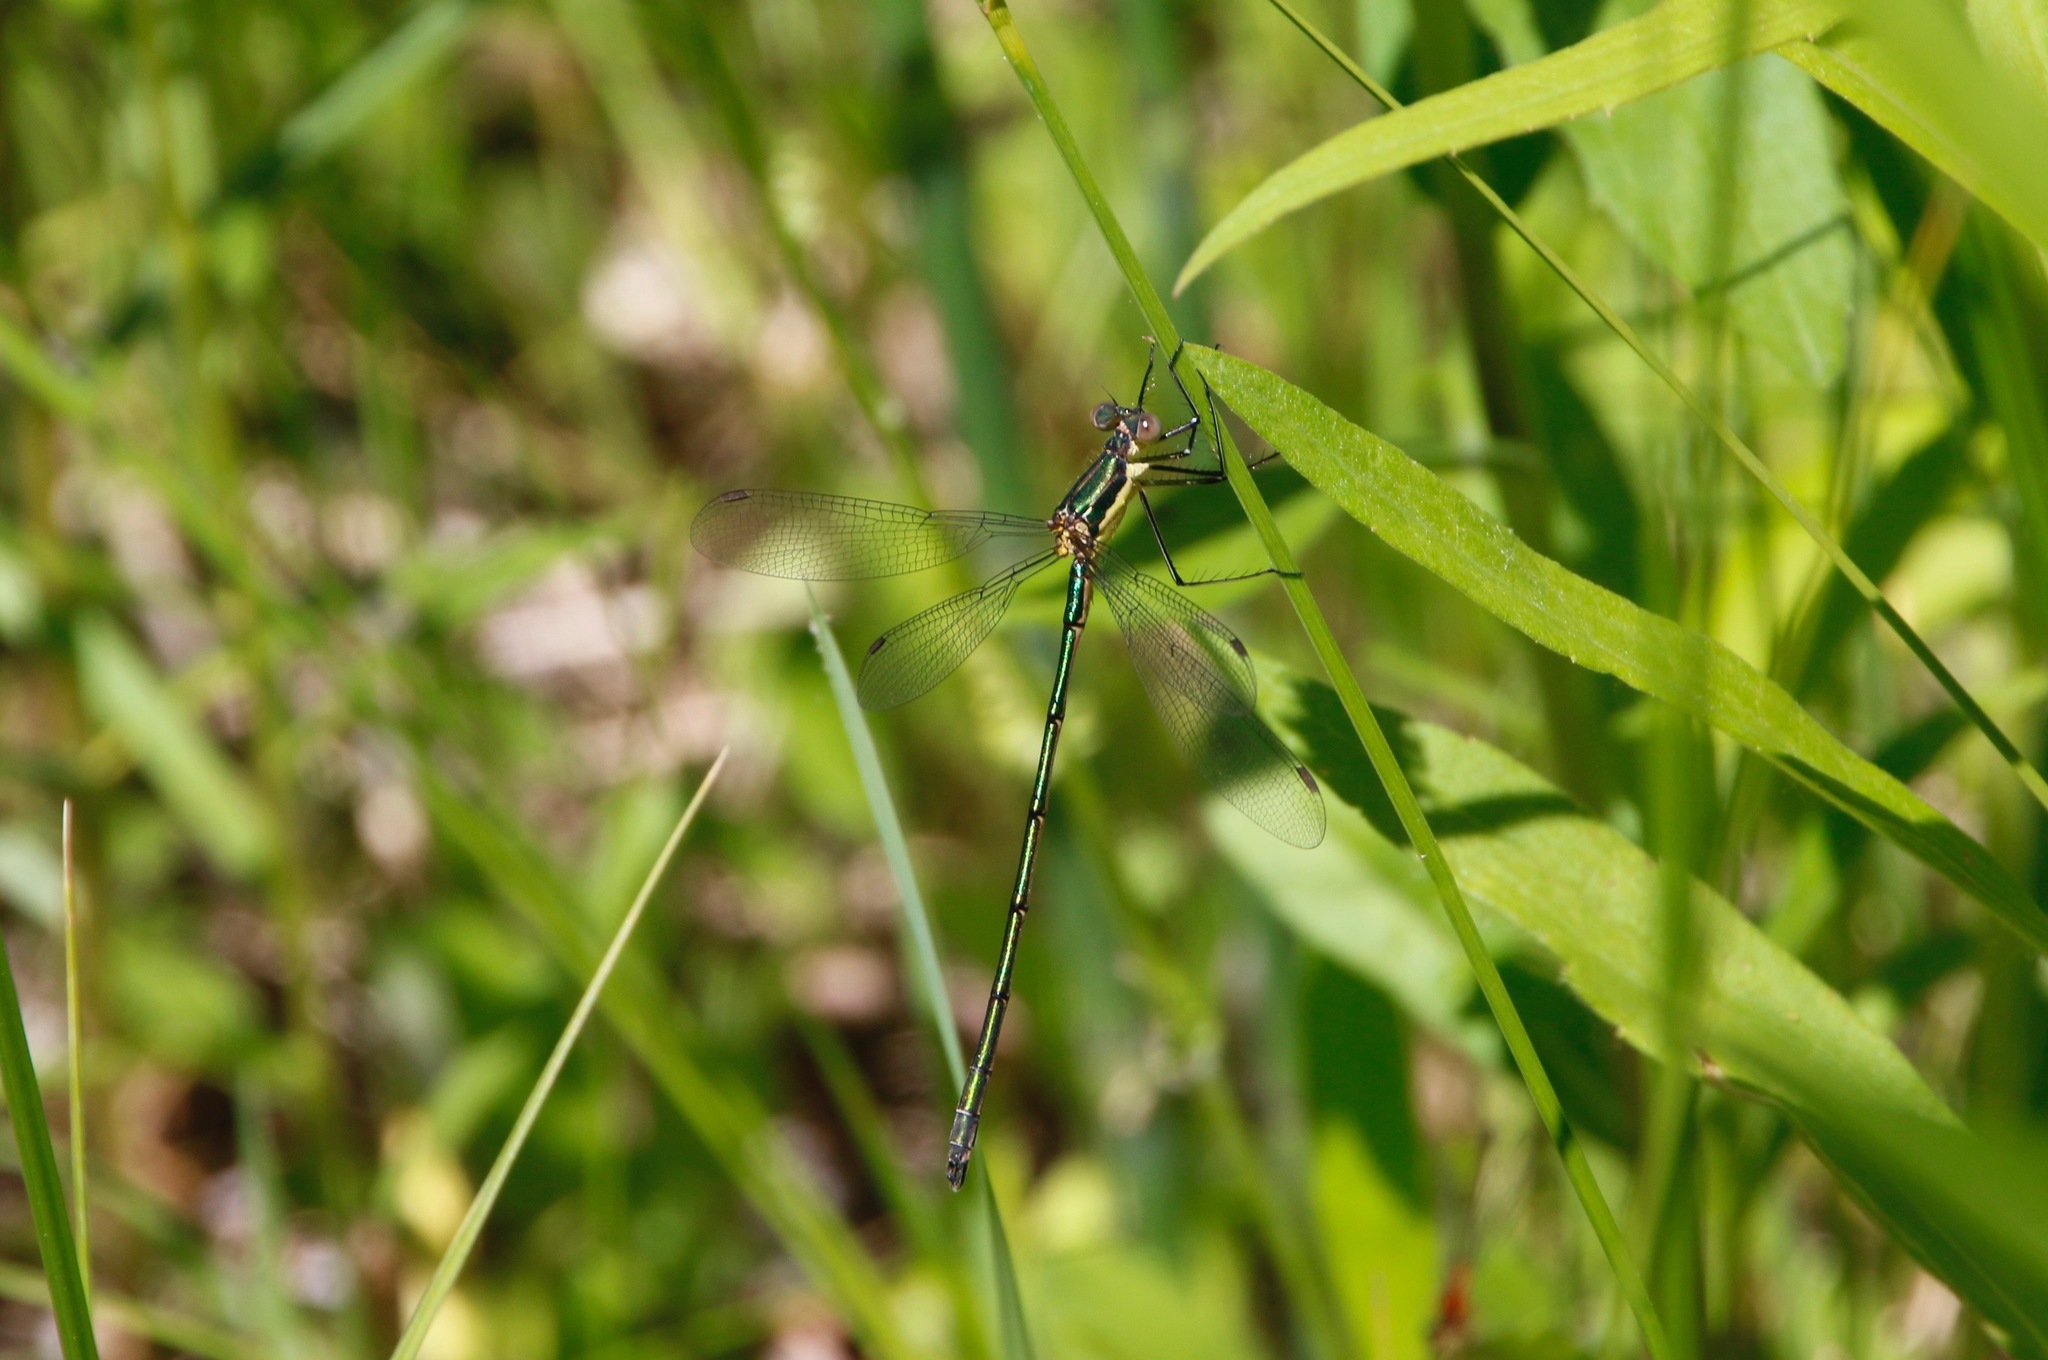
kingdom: Animalia
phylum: Arthropoda
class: Insecta
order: Odonata
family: Lestidae
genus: Lestes
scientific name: Lestes inaequalis
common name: Elegant spreadwing
